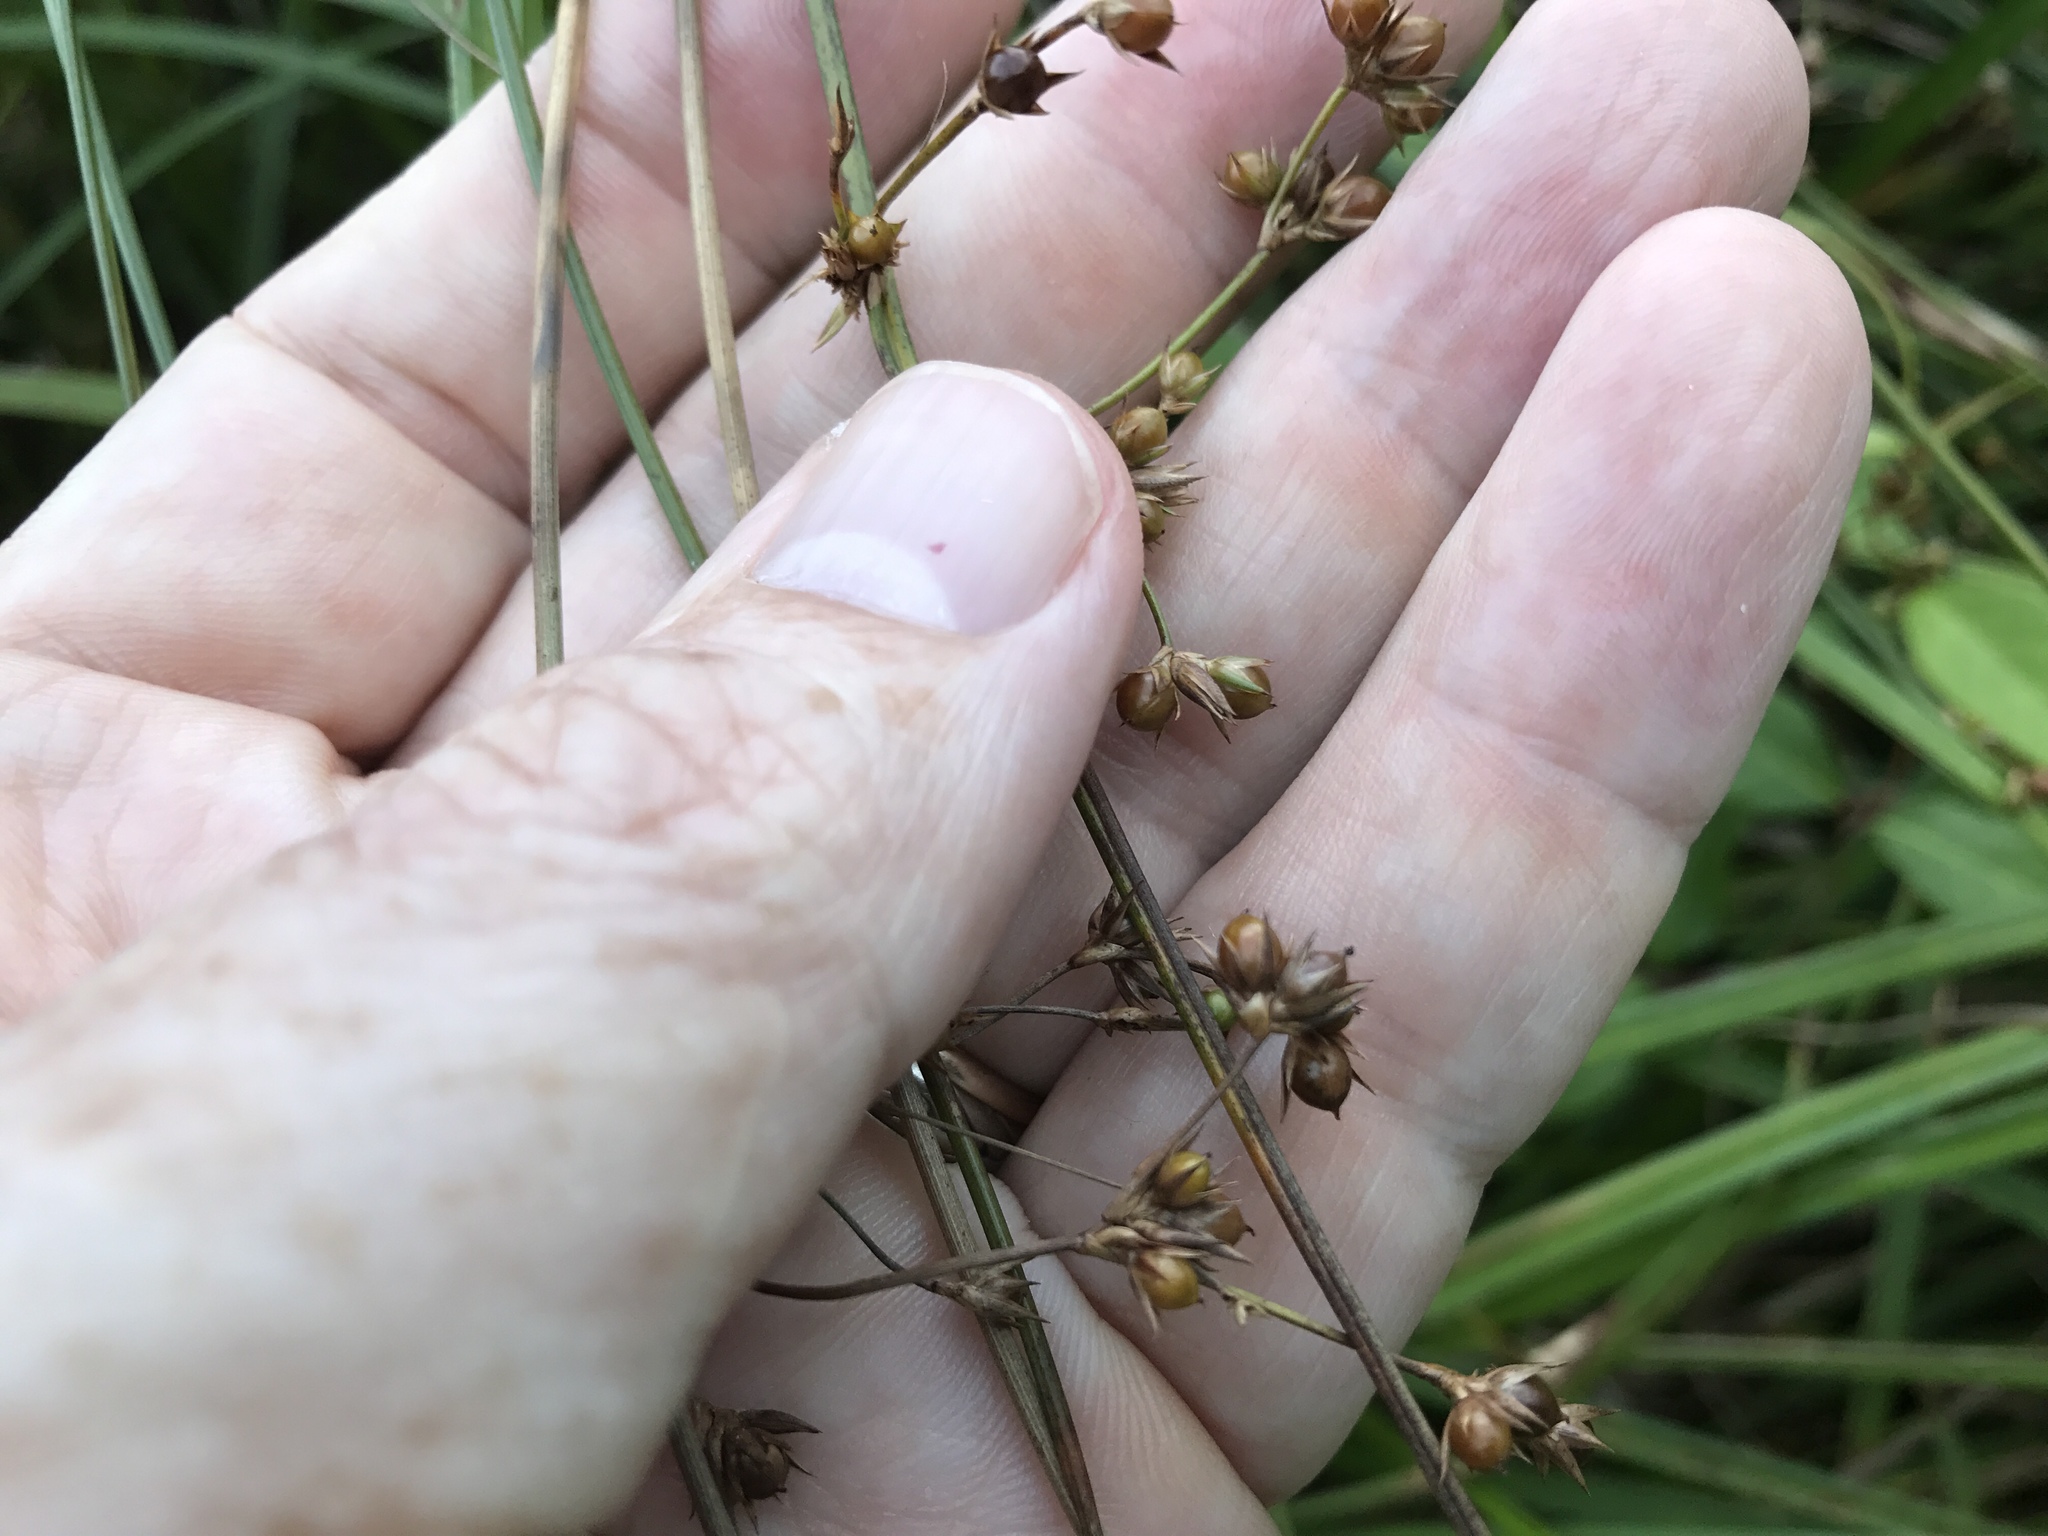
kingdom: Plantae
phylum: Tracheophyta
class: Liliopsida
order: Poales
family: Juncaceae
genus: Juncus
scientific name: Juncus coriaceus
